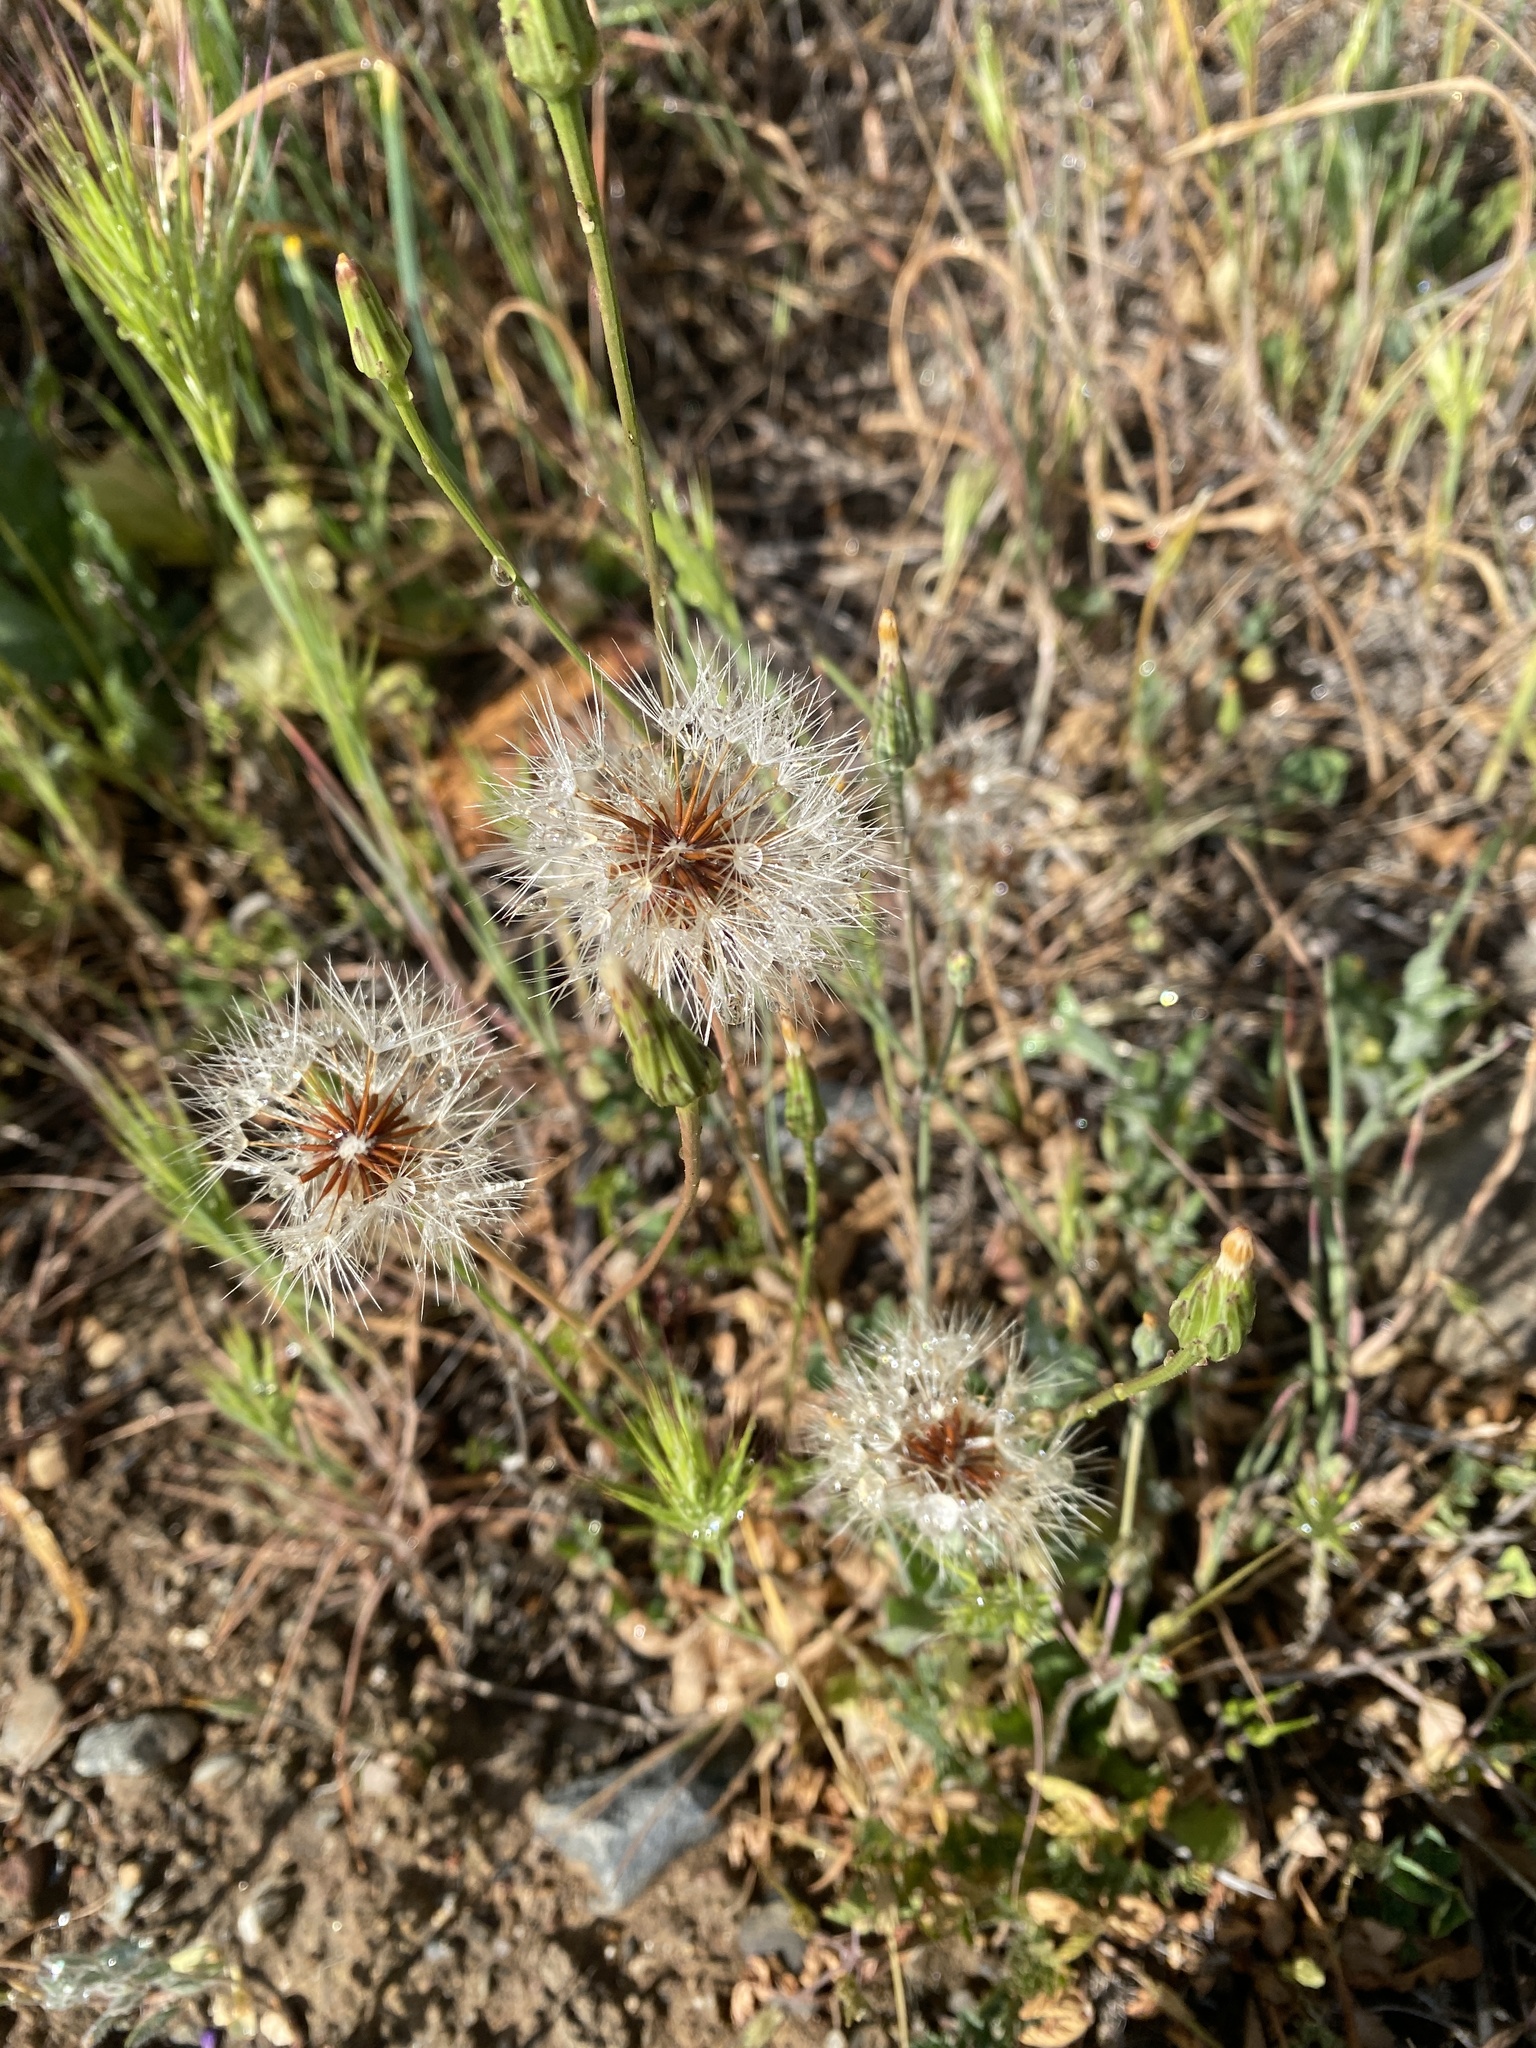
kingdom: Plantae
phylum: Tracheophyta
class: Magnoliopsida
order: Asterales
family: Asteraceae
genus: Hypochaeris
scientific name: Hypochaeris glabra
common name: Smooth catsear
